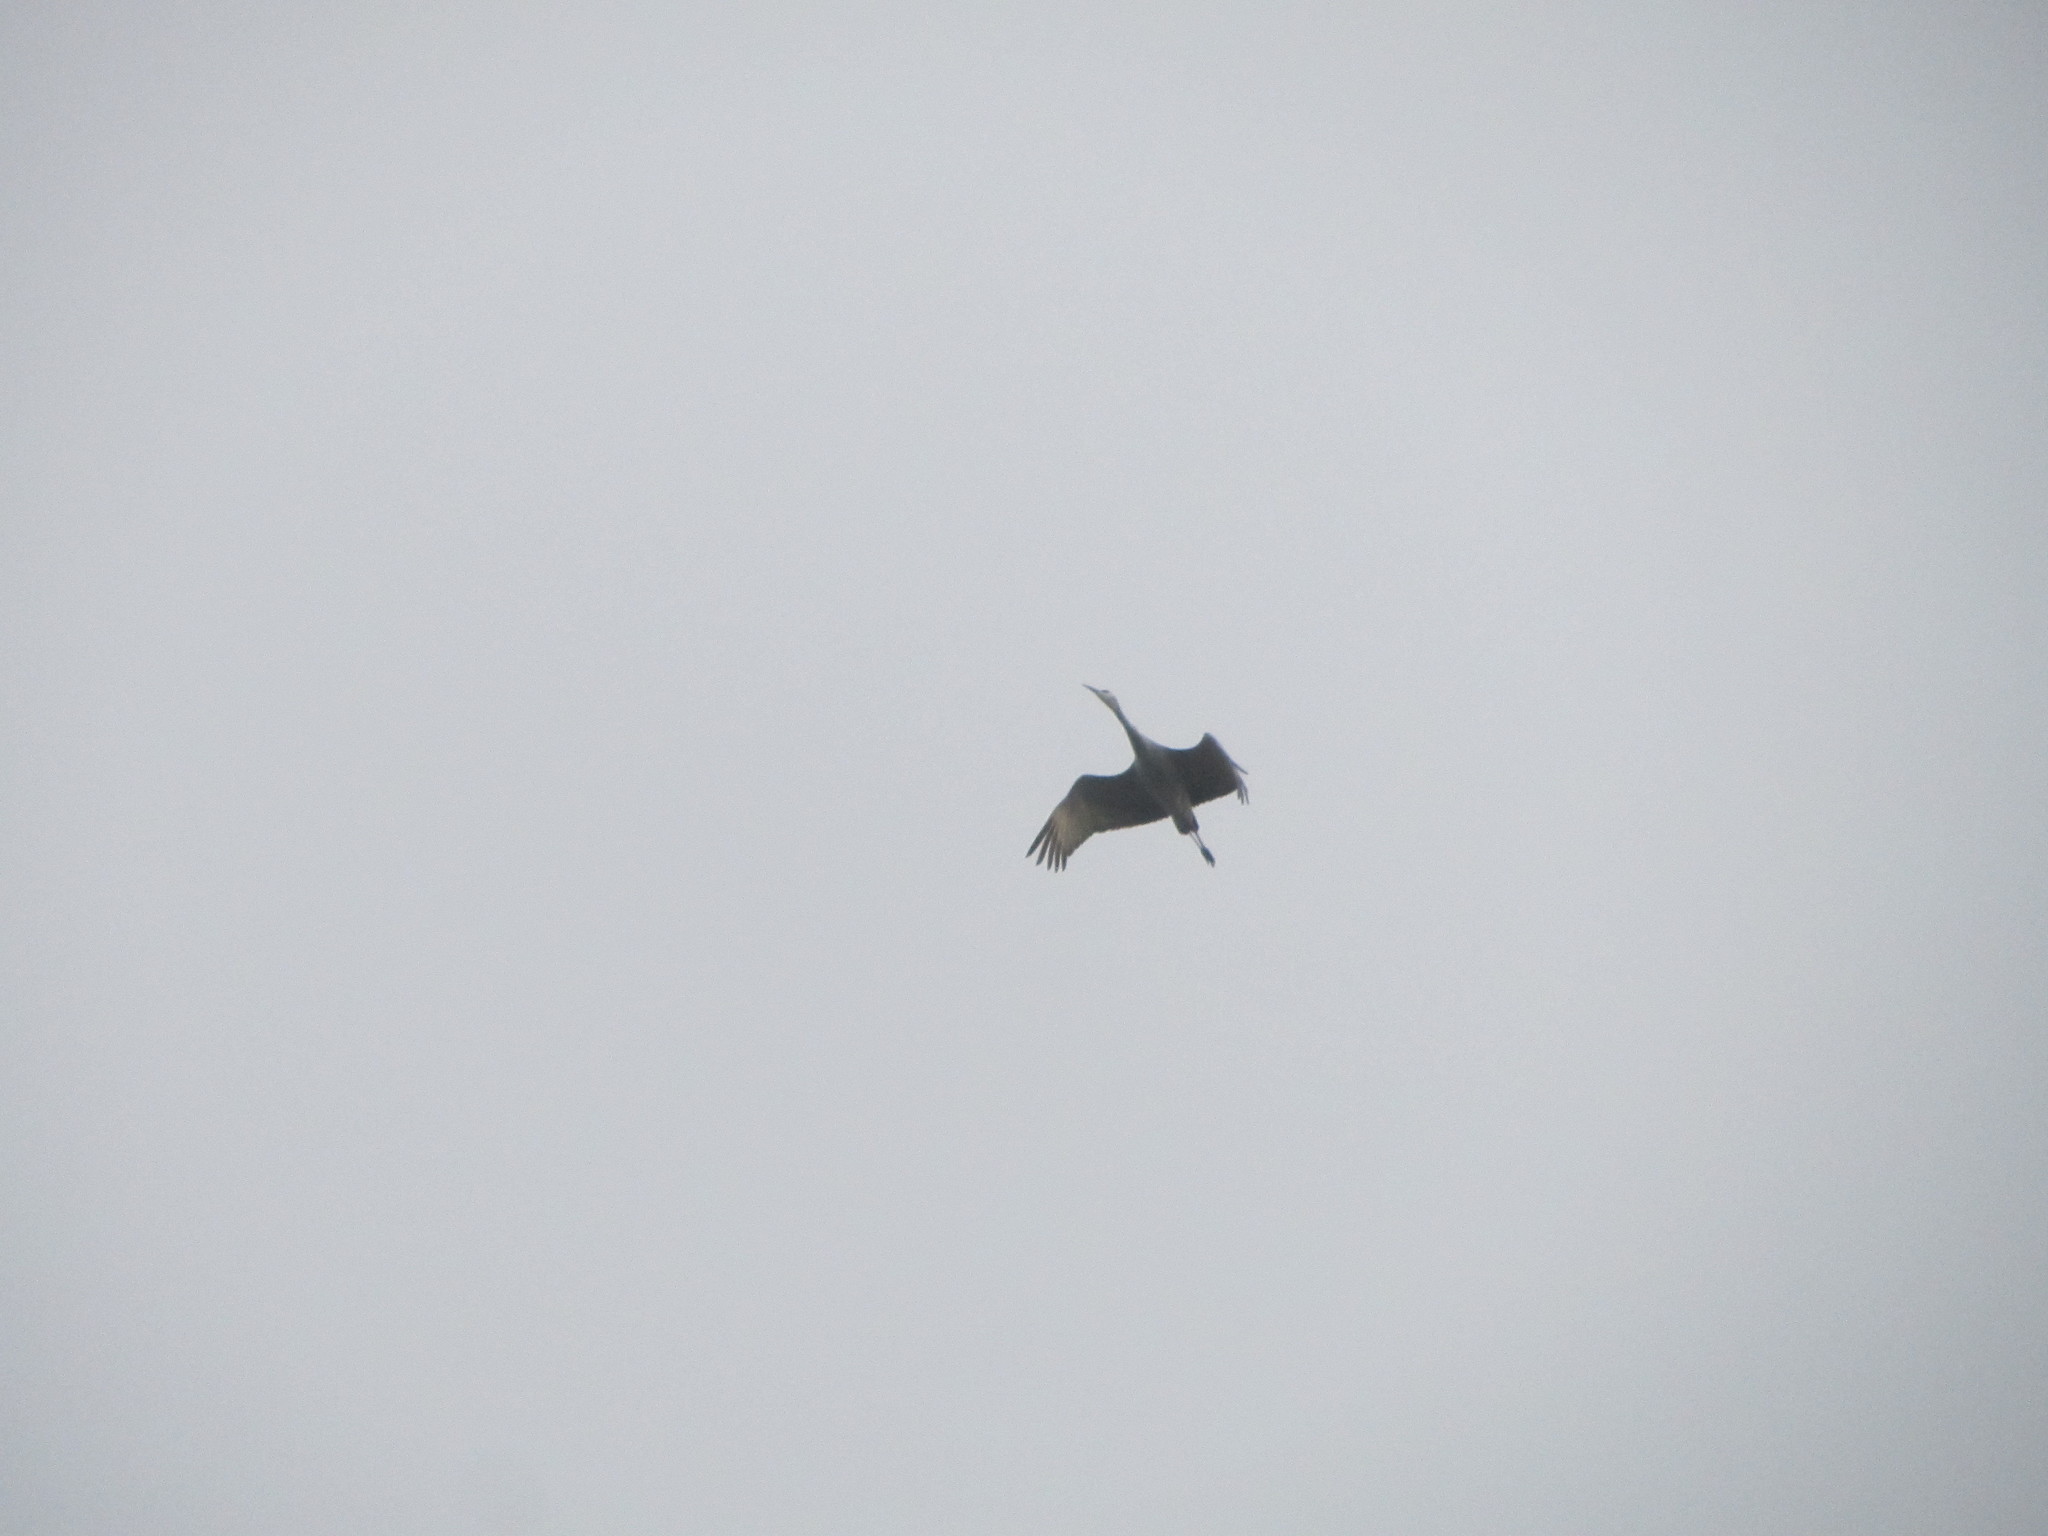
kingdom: Animalia
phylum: Chordata
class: Aves
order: Gruiformes
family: Gruidae
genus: Grus
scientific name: Grus canadensis
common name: Sandhill crane
